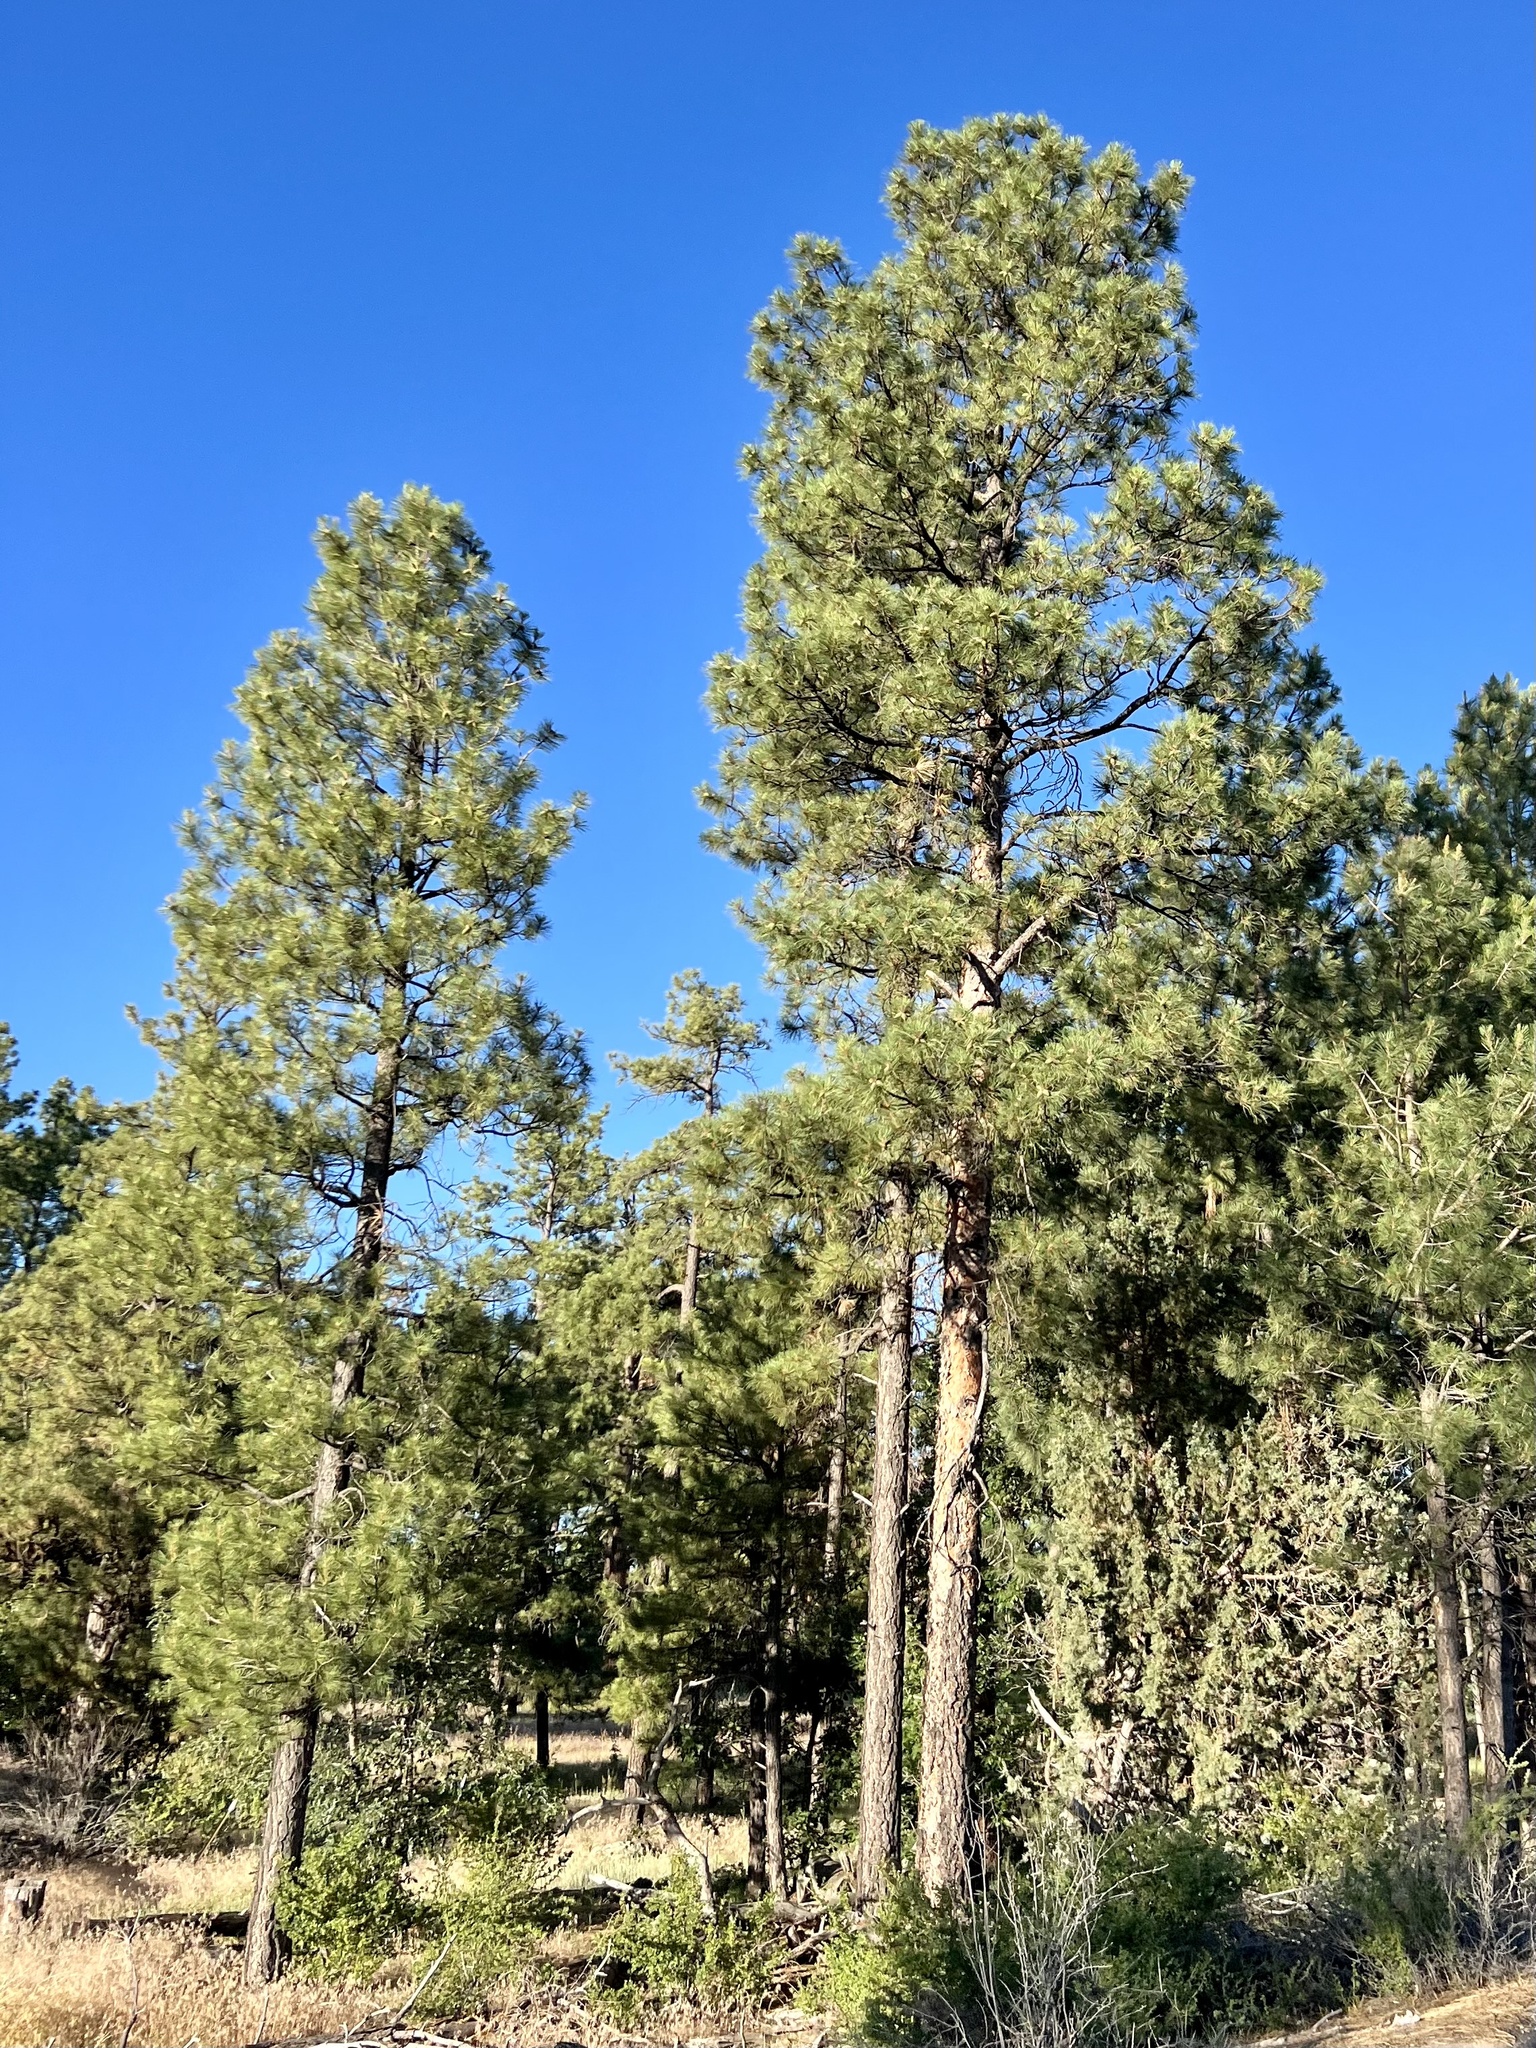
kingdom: Plantae
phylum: Tracheophyta
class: Pinopsida
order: Pinales
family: Pinaceae
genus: Pinus
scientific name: Pinus ponderosa
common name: Western yellow-pine
